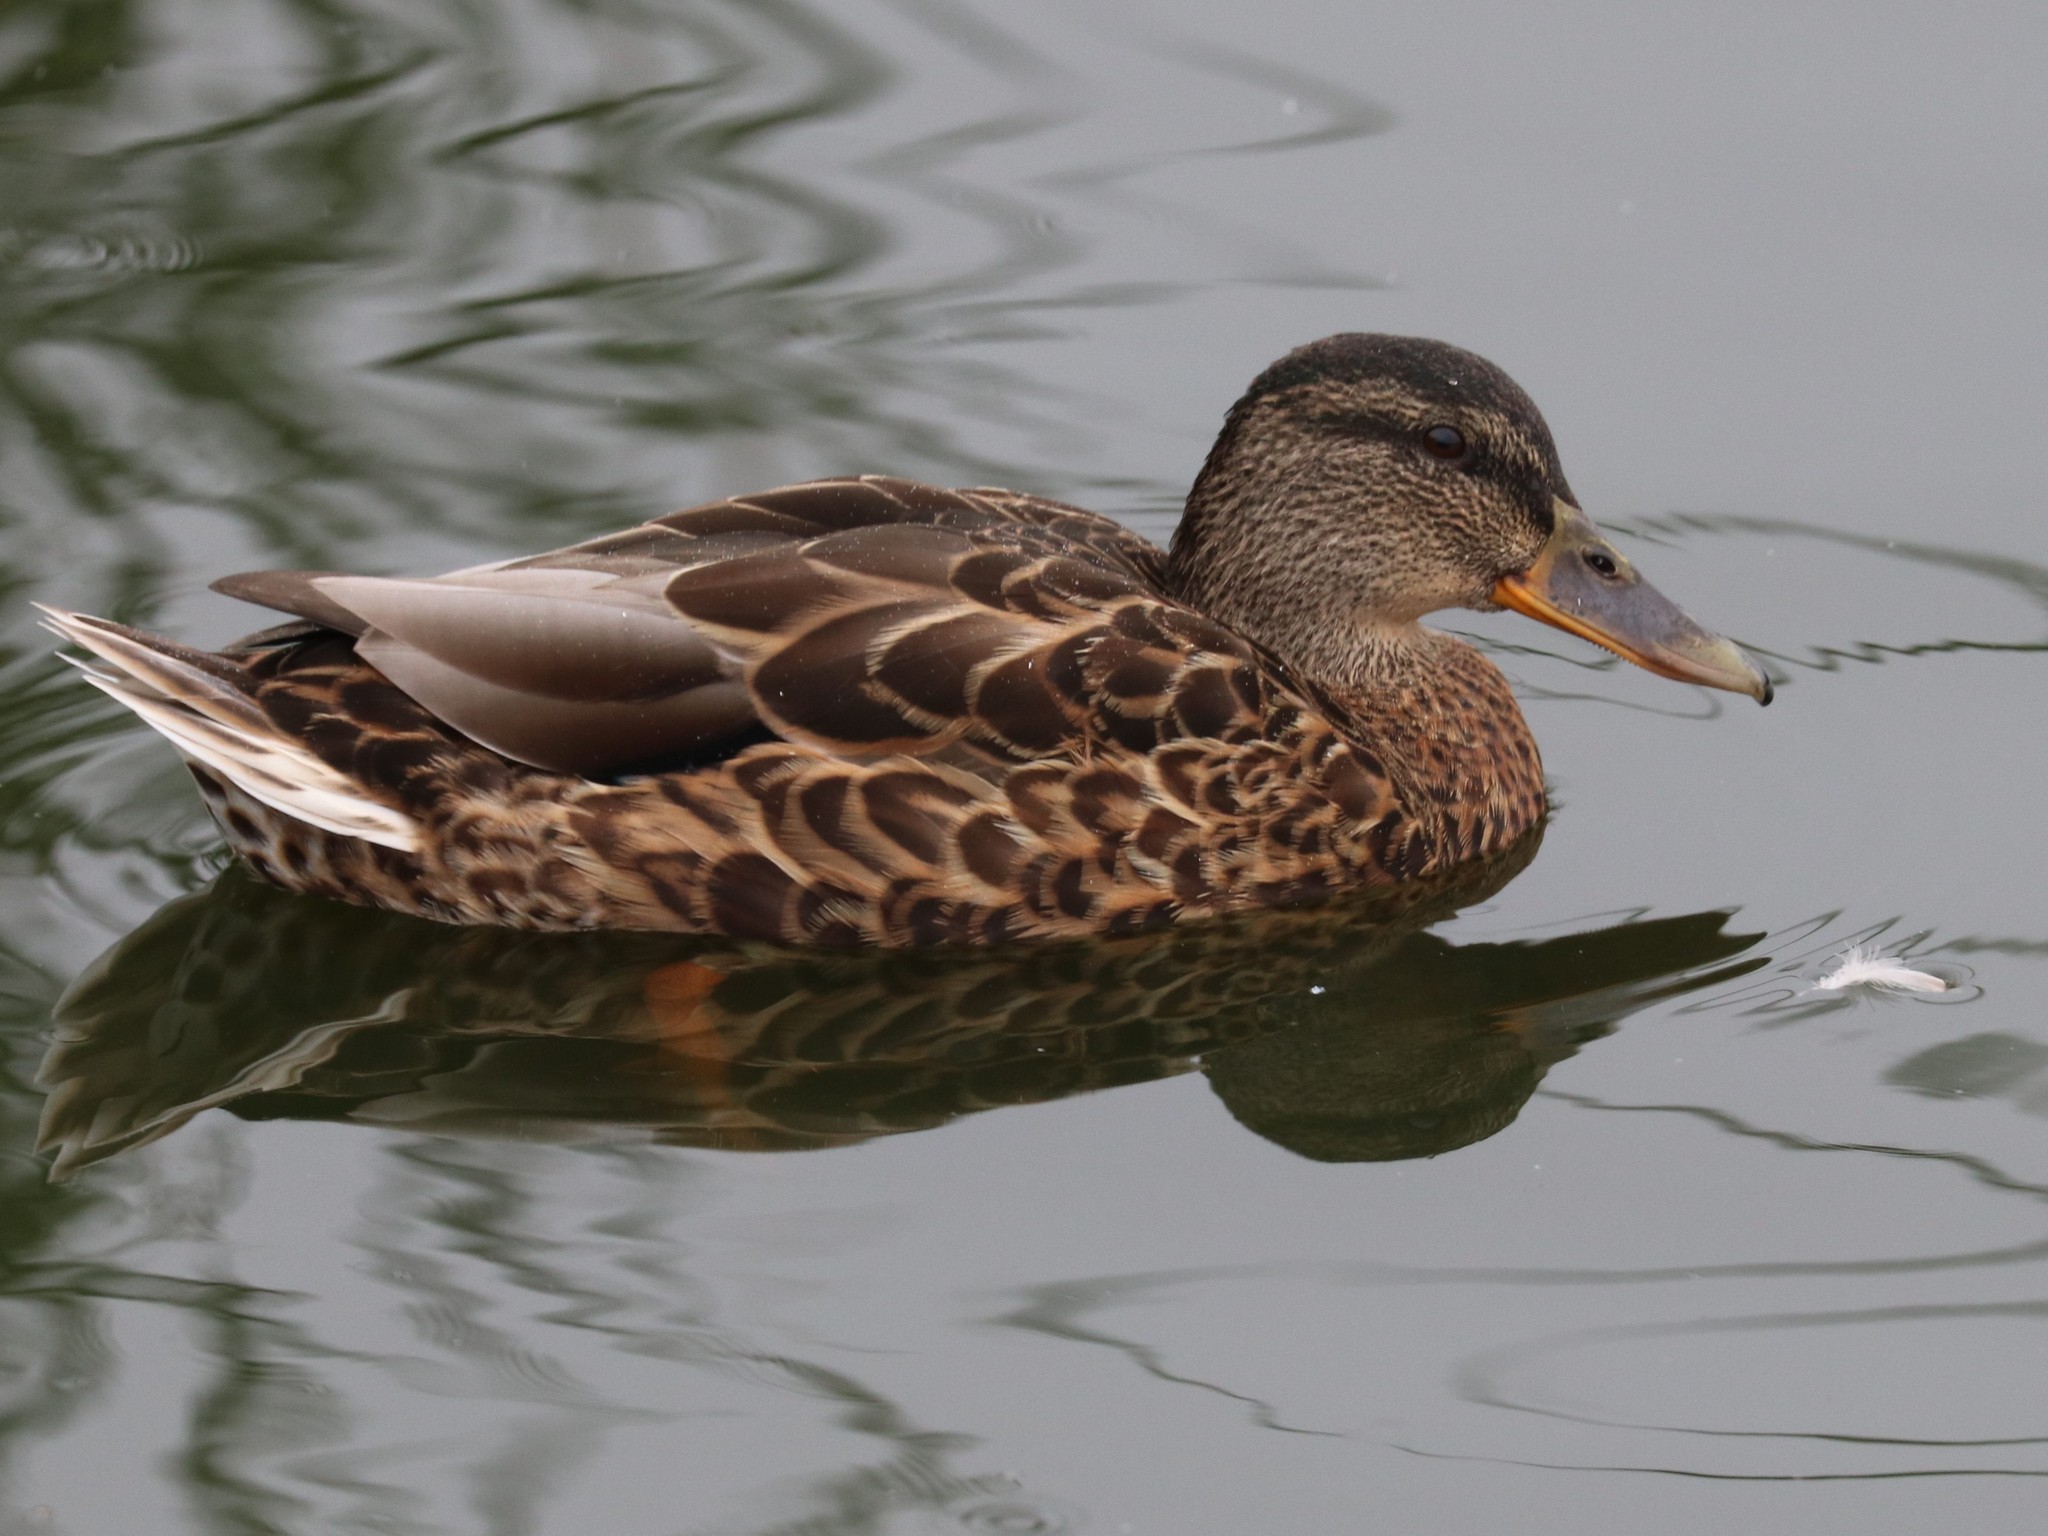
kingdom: Animalia
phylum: Chordata
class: Aves
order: Anseriformes
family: Anatidae
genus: Anas
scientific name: Anas platyrhynchos
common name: Mallard
